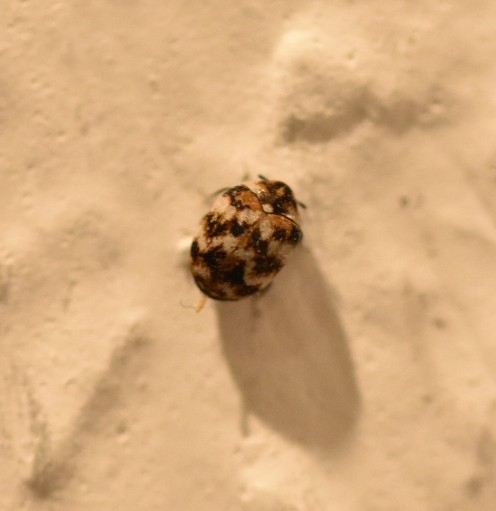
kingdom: Animalia
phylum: Arthropoda
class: Insecta
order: Coleoptera
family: Dermestidae
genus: Anthrenus
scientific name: Anthrenus verbasci
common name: Varied carpet beetle
